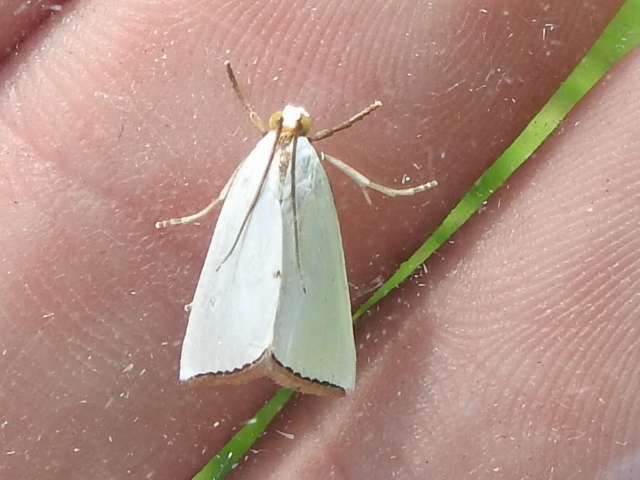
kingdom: Animalia
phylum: Arthropoda
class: Insecta
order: Lepidoptera
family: Crambidae
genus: Argyria
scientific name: Argyria nivalis
